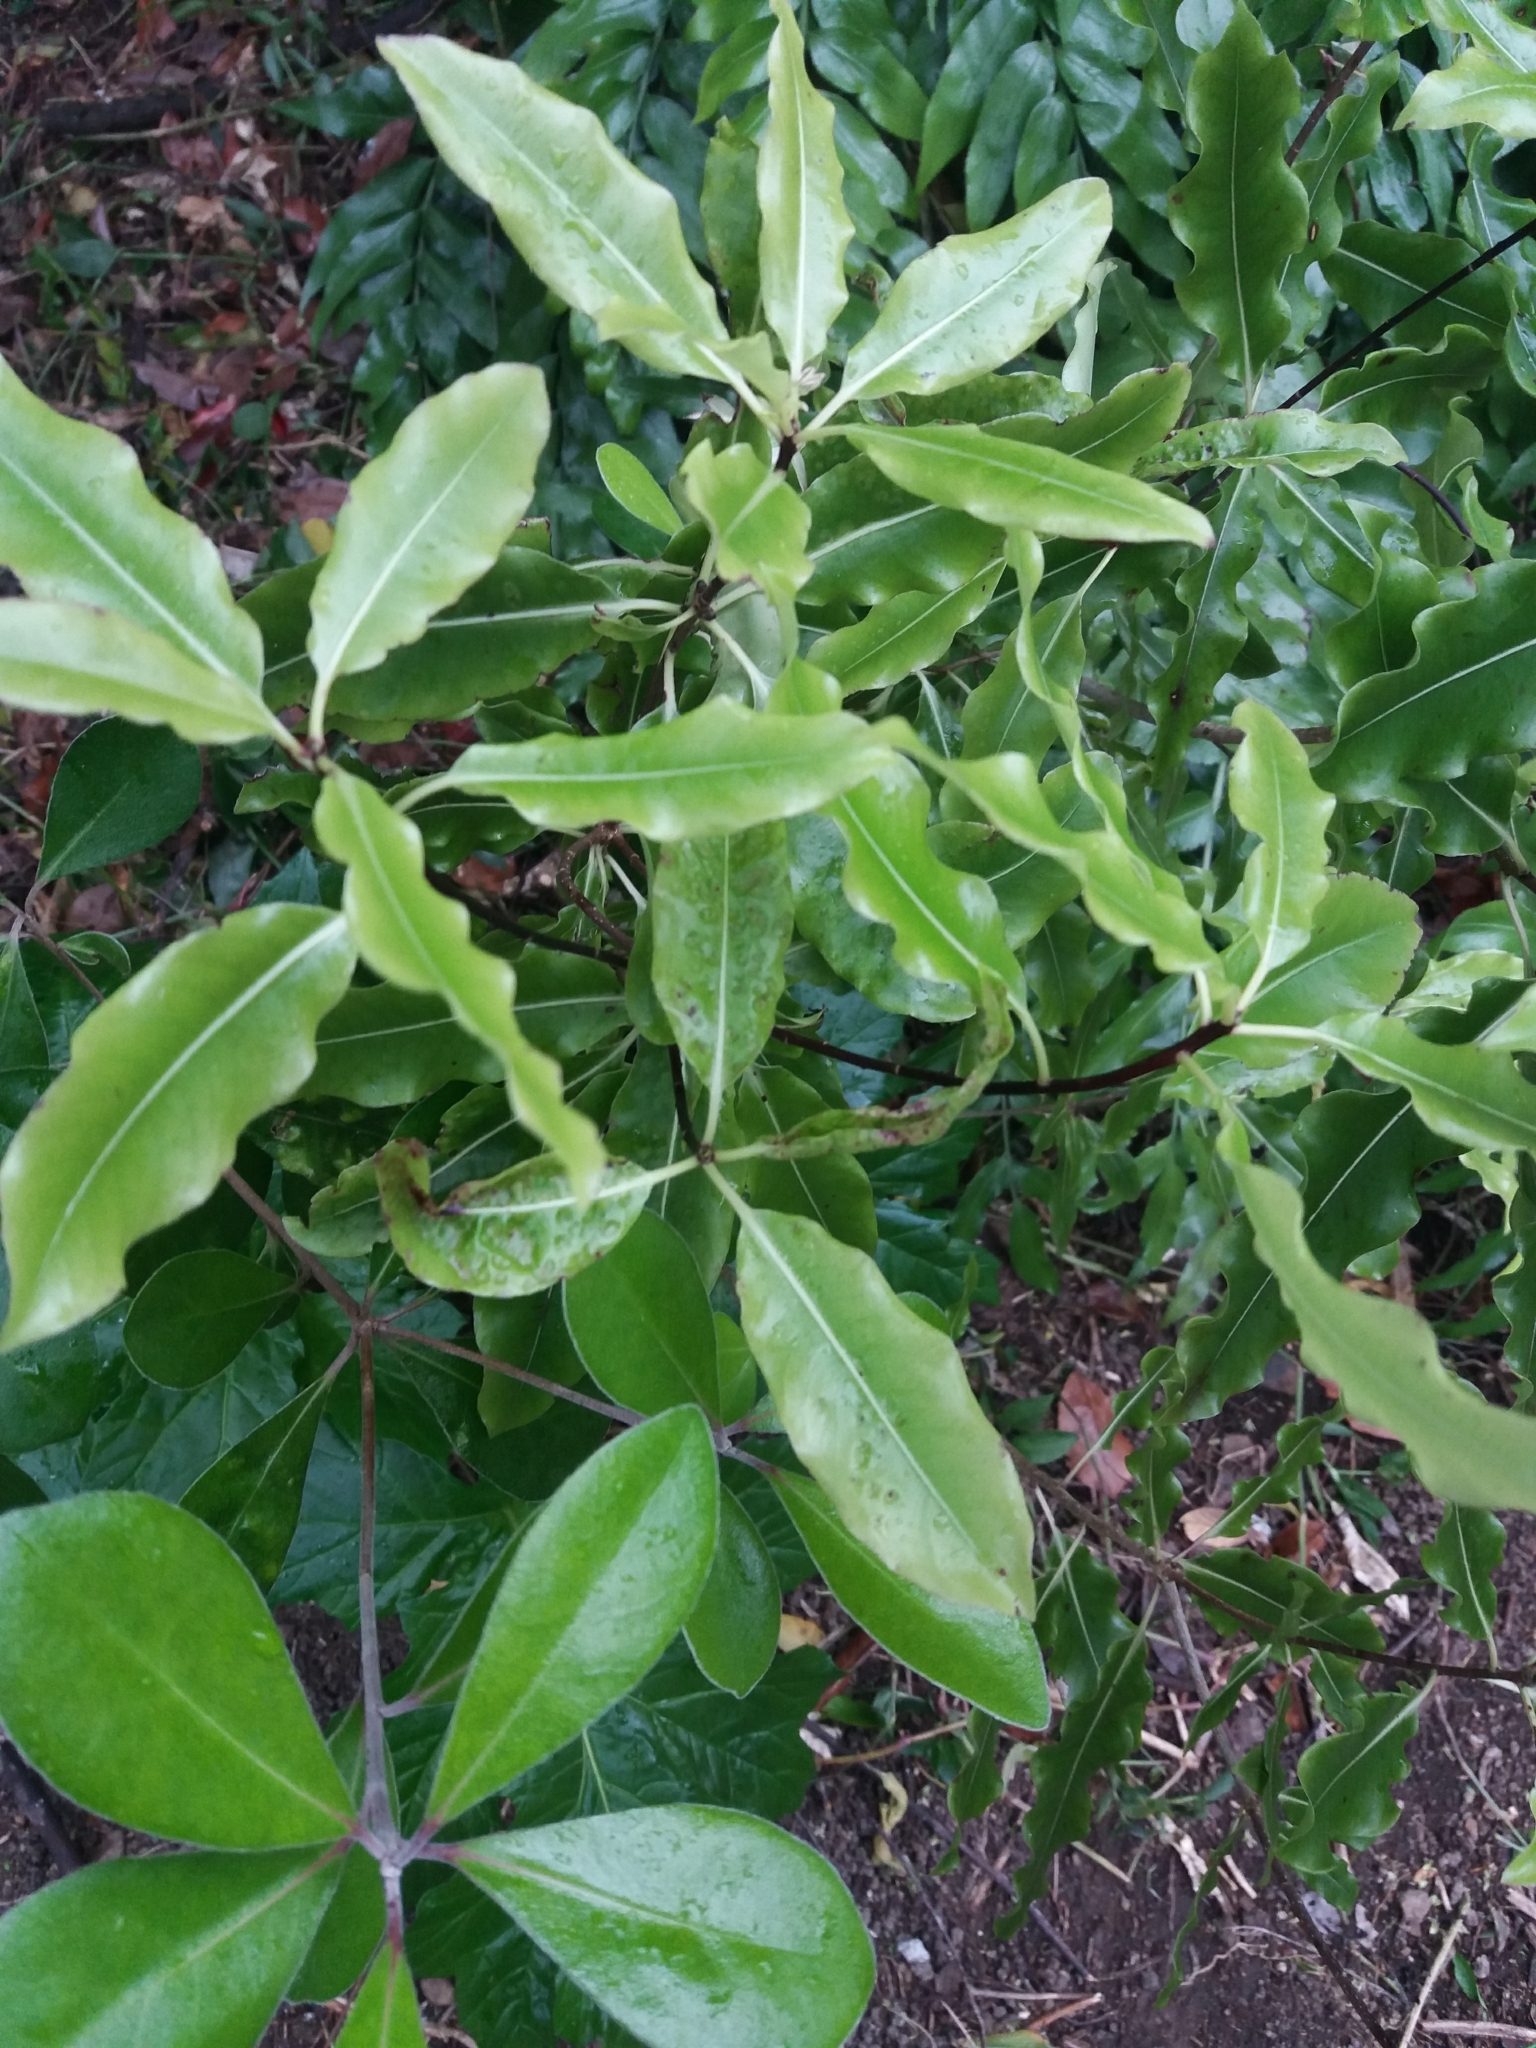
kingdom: Plantae
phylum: Tracheophyta
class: Magnoliopsida
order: Apiales
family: Pittosporaceae
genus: Pittosporum
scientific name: Pittosporum eugenioides
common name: Lemonwood
